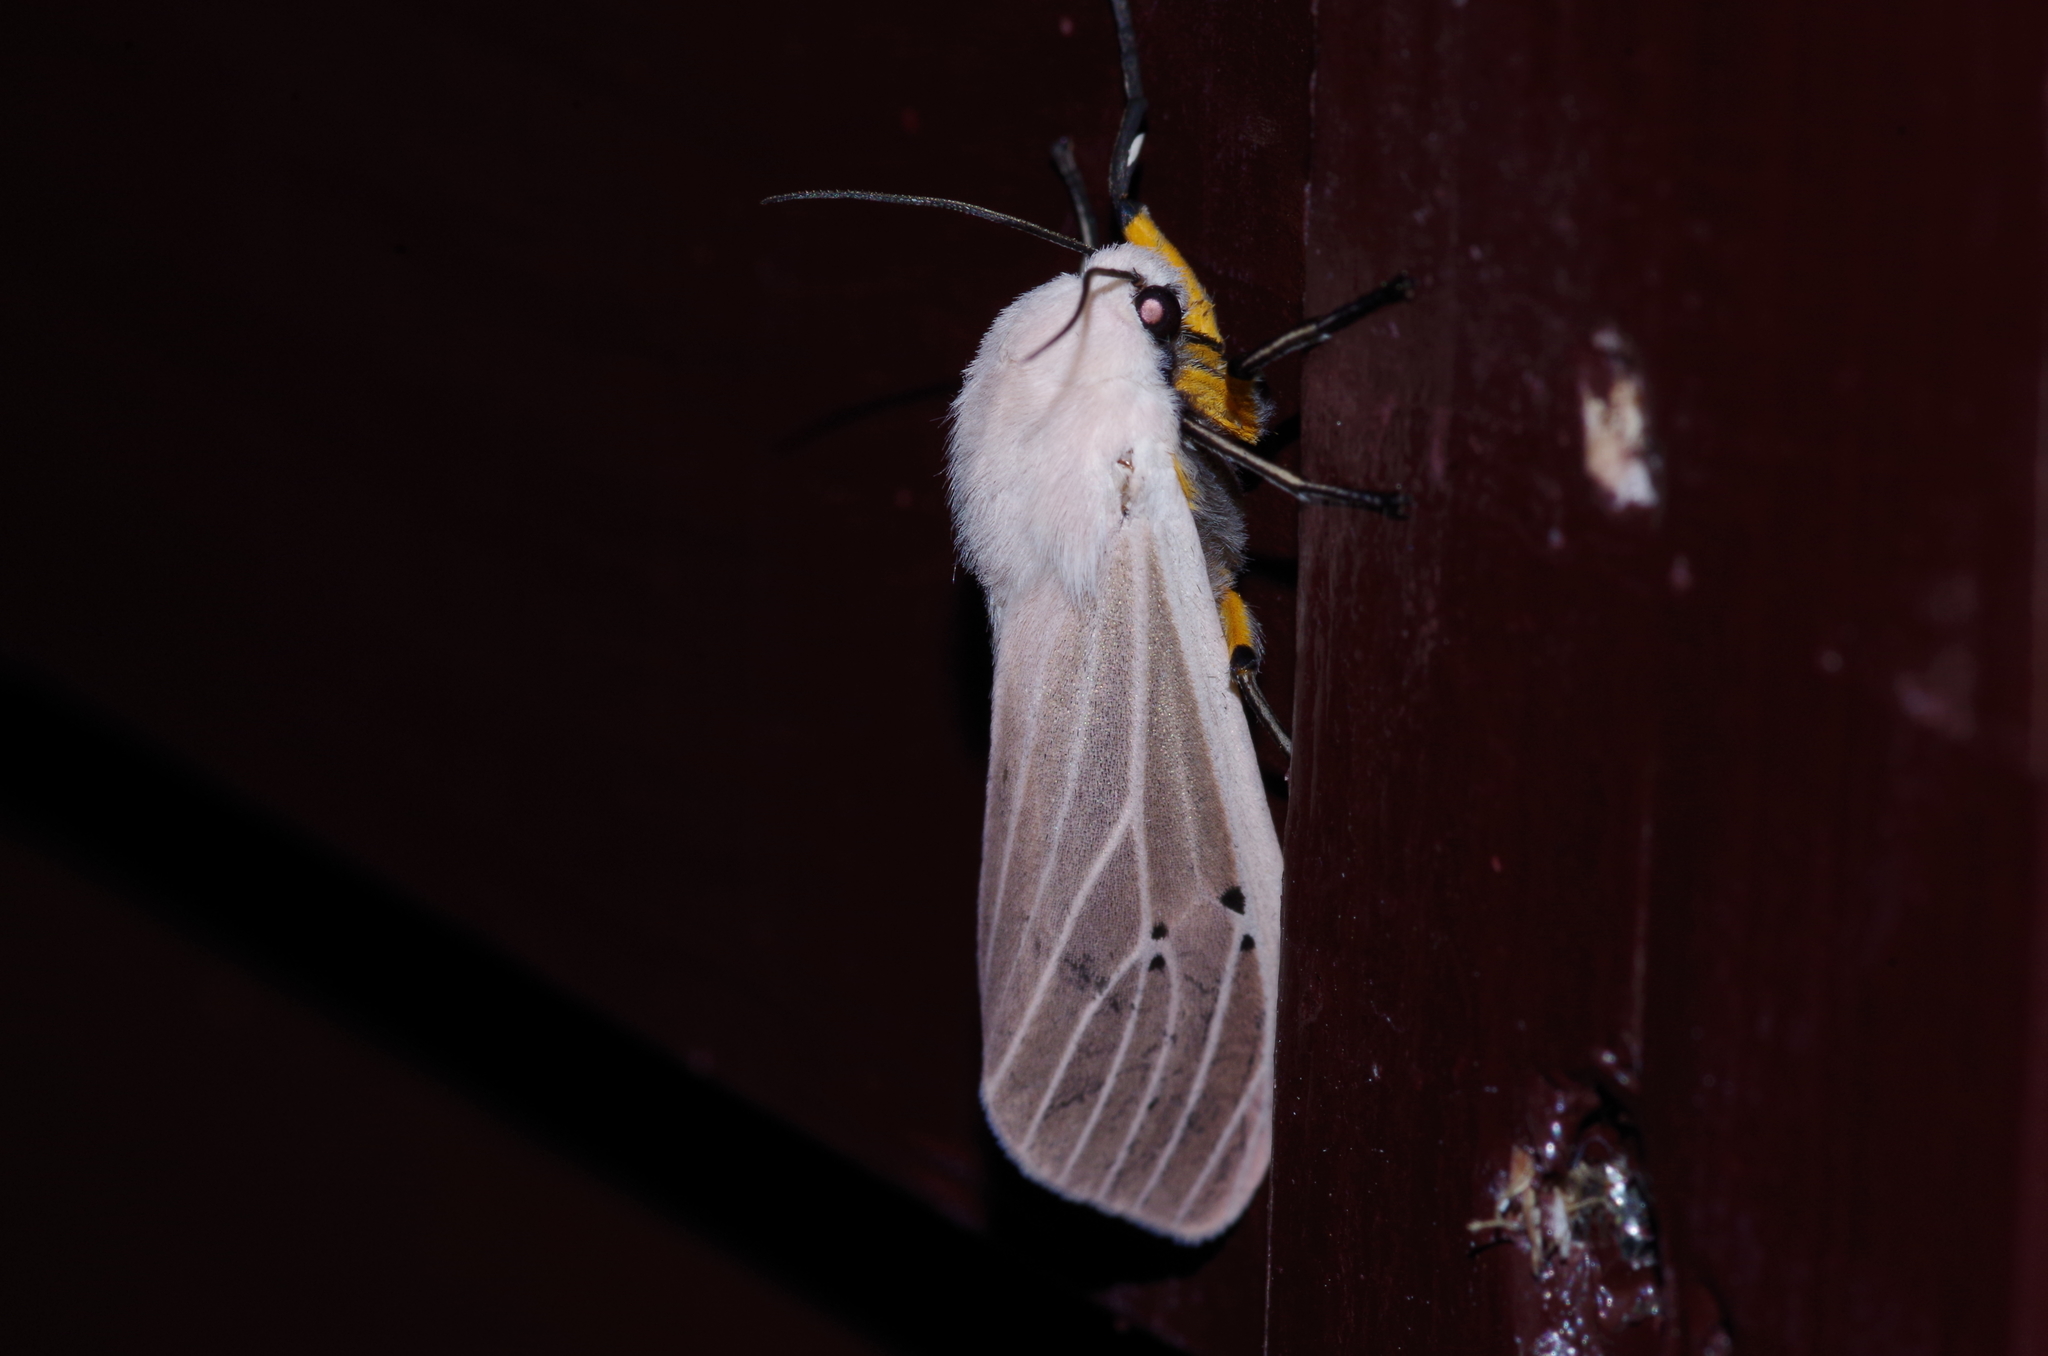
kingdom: Animalia
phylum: Arthropoda
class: Insecta
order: Lepidoptera
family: Erebidae
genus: Creatonotos
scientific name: Creatonotos transiens
